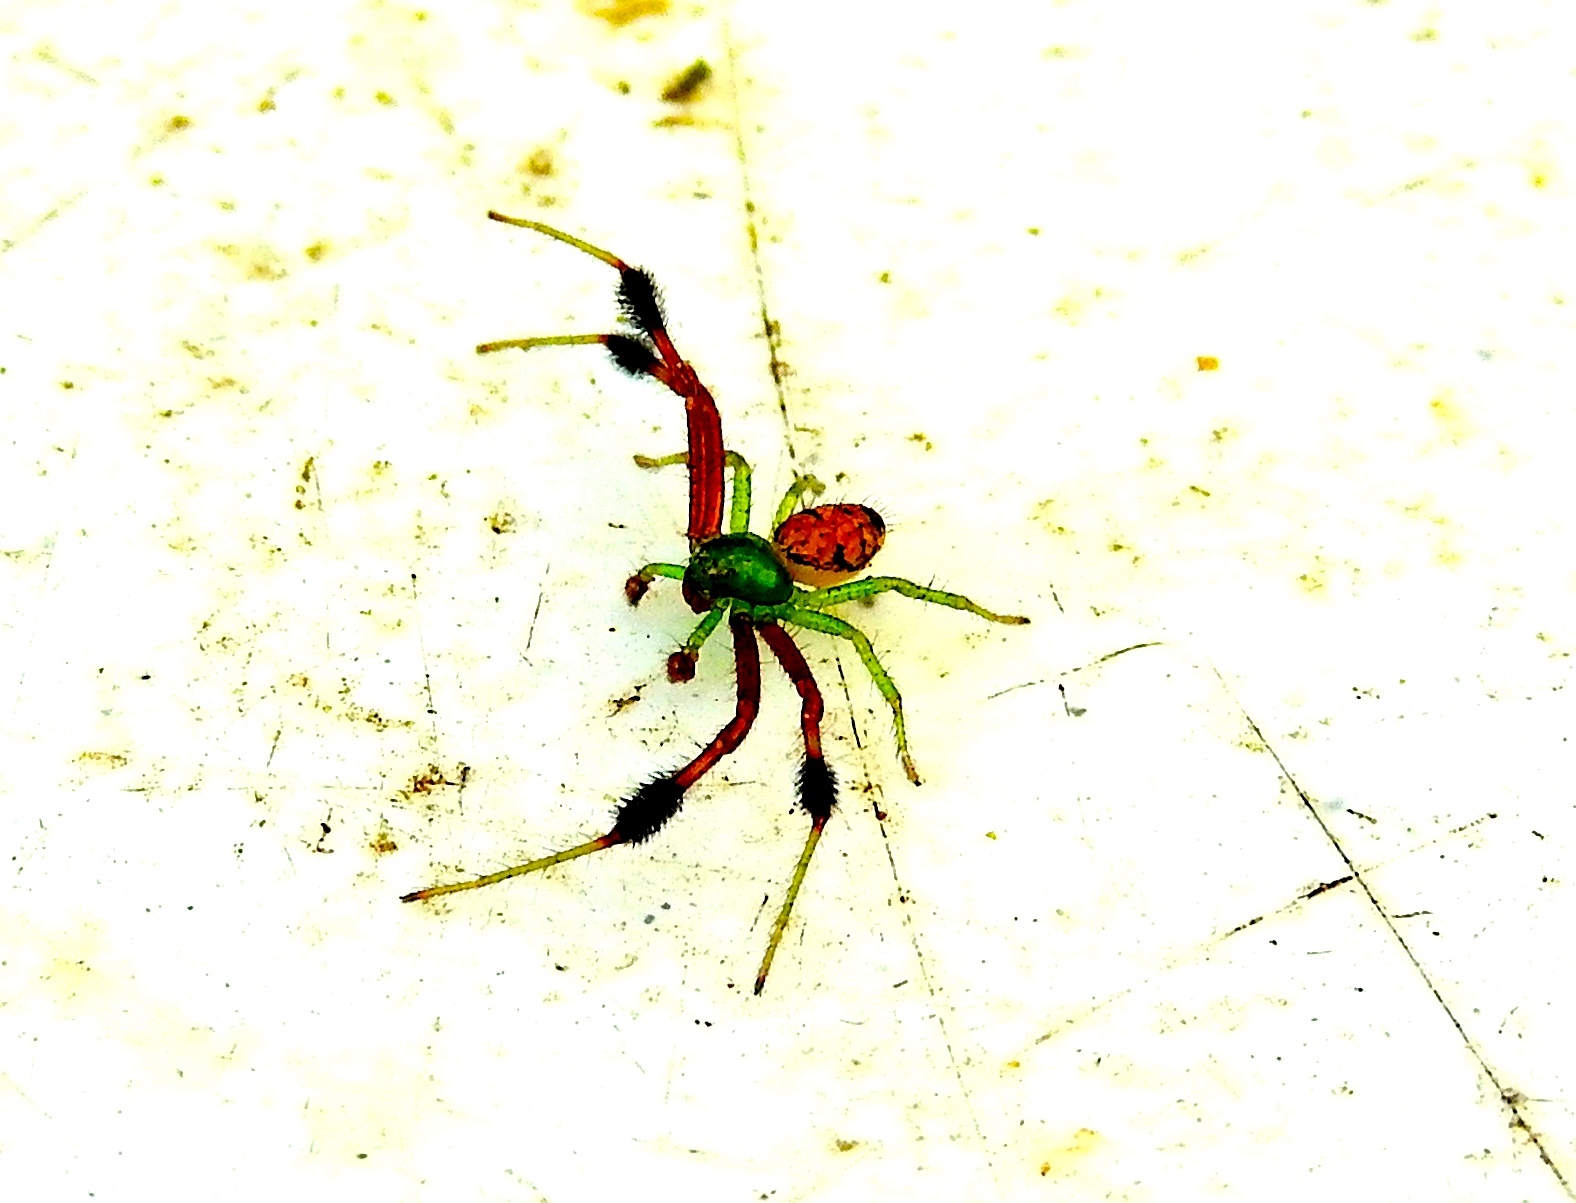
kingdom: Animalia
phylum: Arthropoda
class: Arachnida
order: Araneae
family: Thomisidae
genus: Parasynema
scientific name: Parasynema cirripes
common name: Crab spiders
